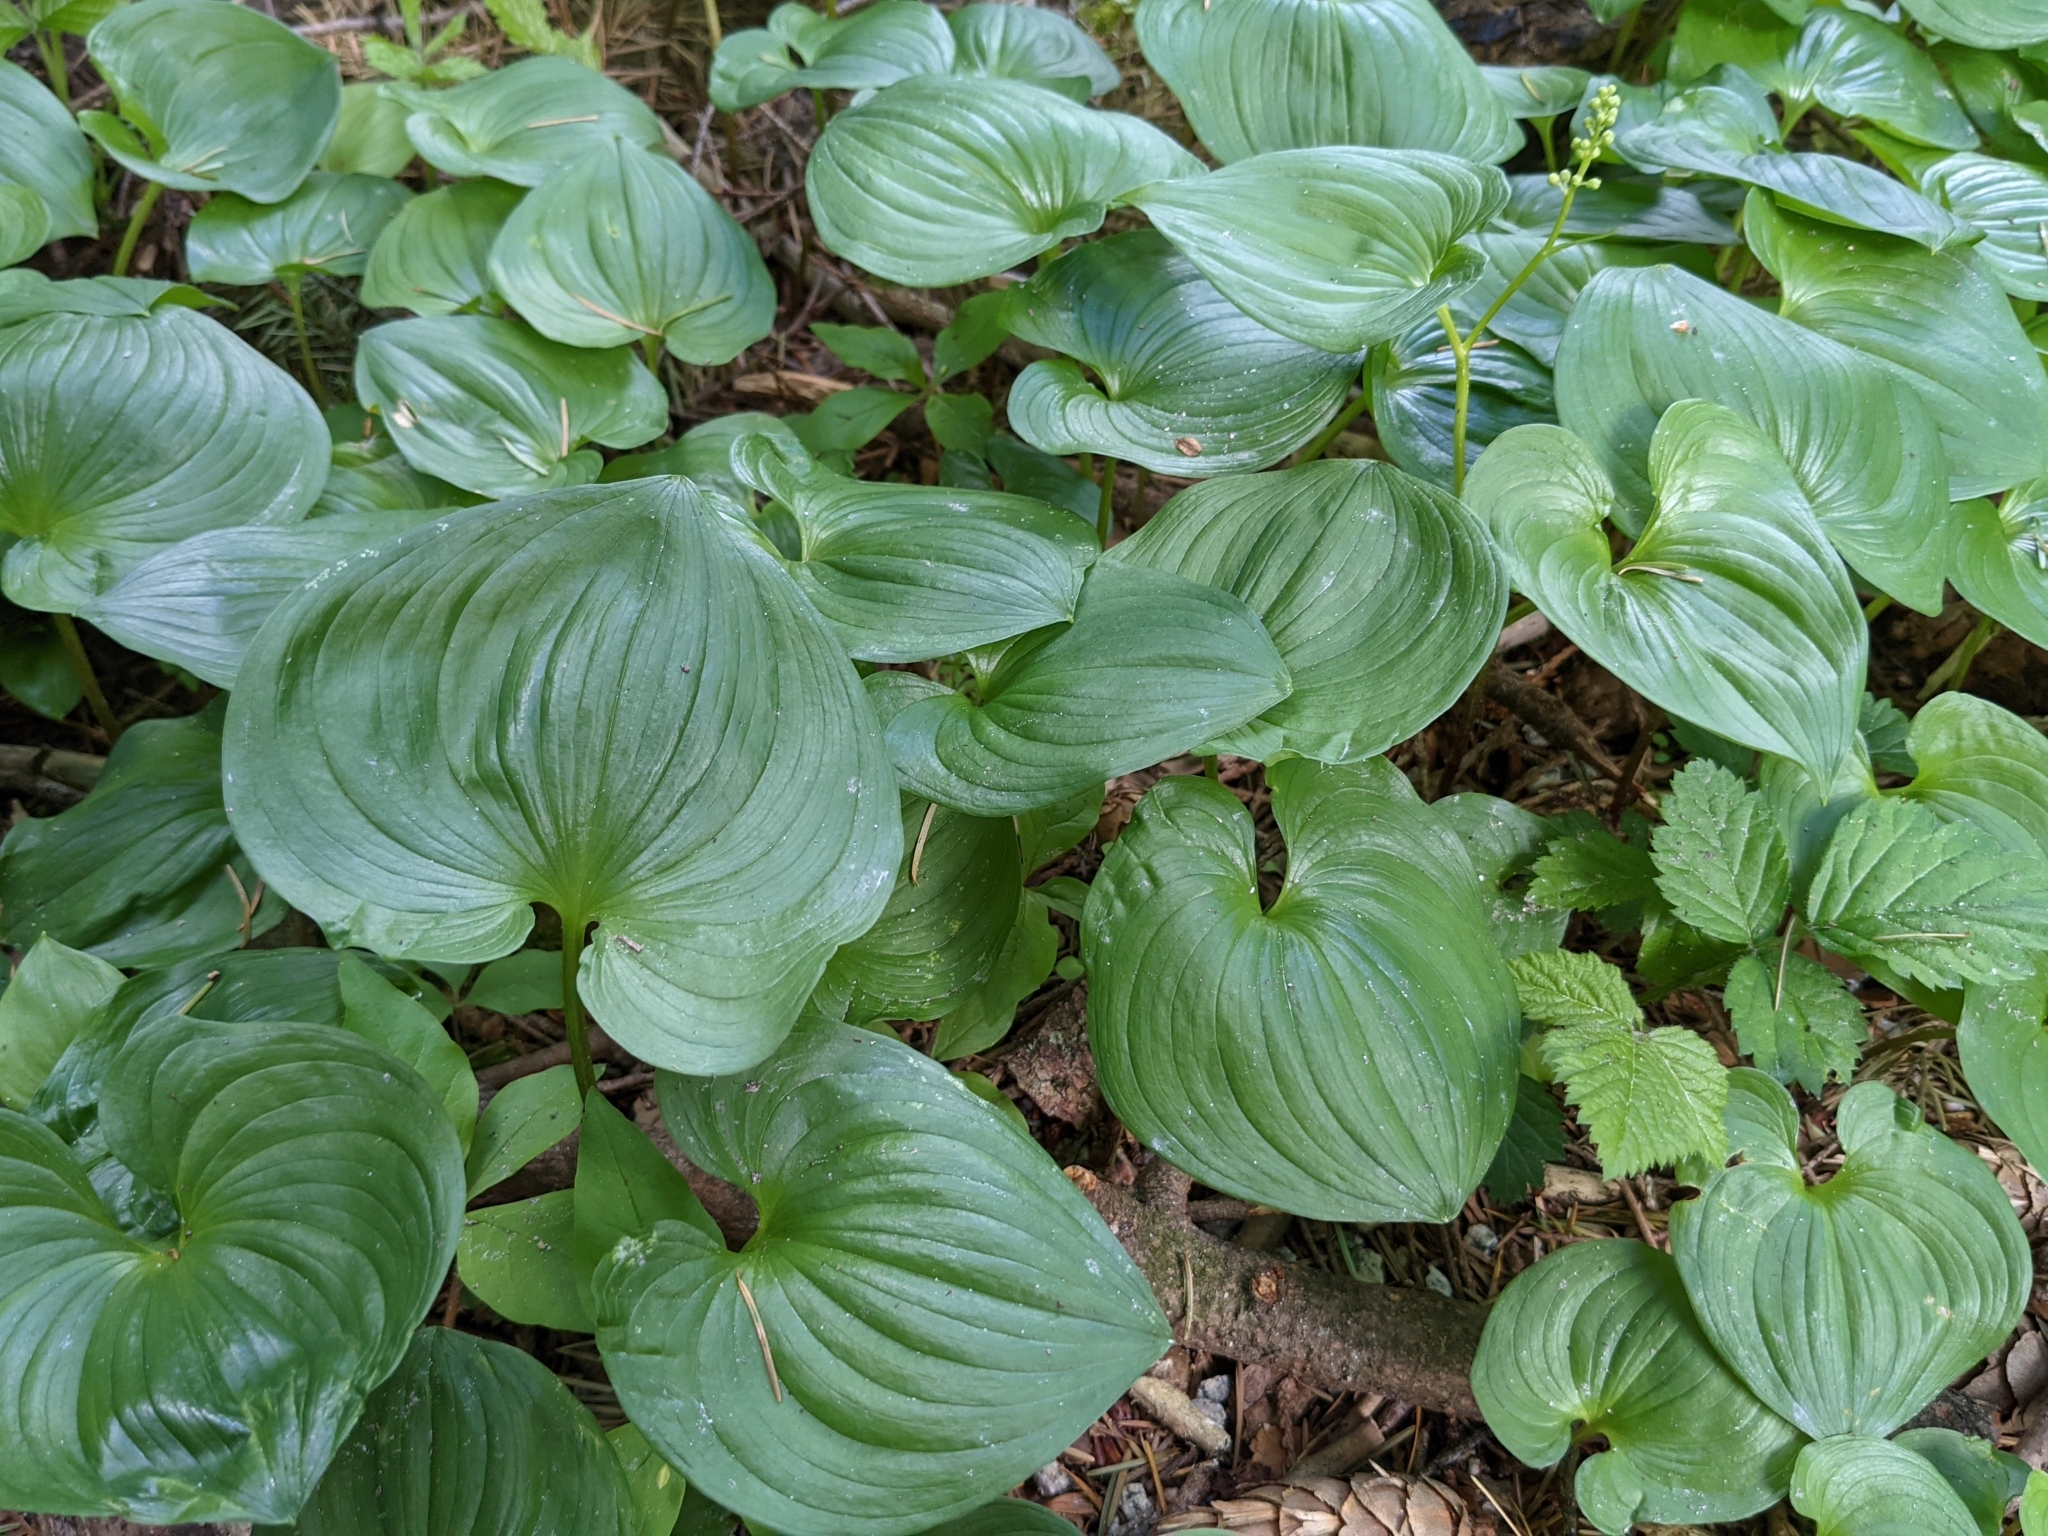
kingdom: Plantae
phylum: Tracheophyta
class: Liliopsida
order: Asparagales
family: Asparagaceae
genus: Maianthemum
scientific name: Maianthemum dilatatum
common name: False lily-of-the-valley
